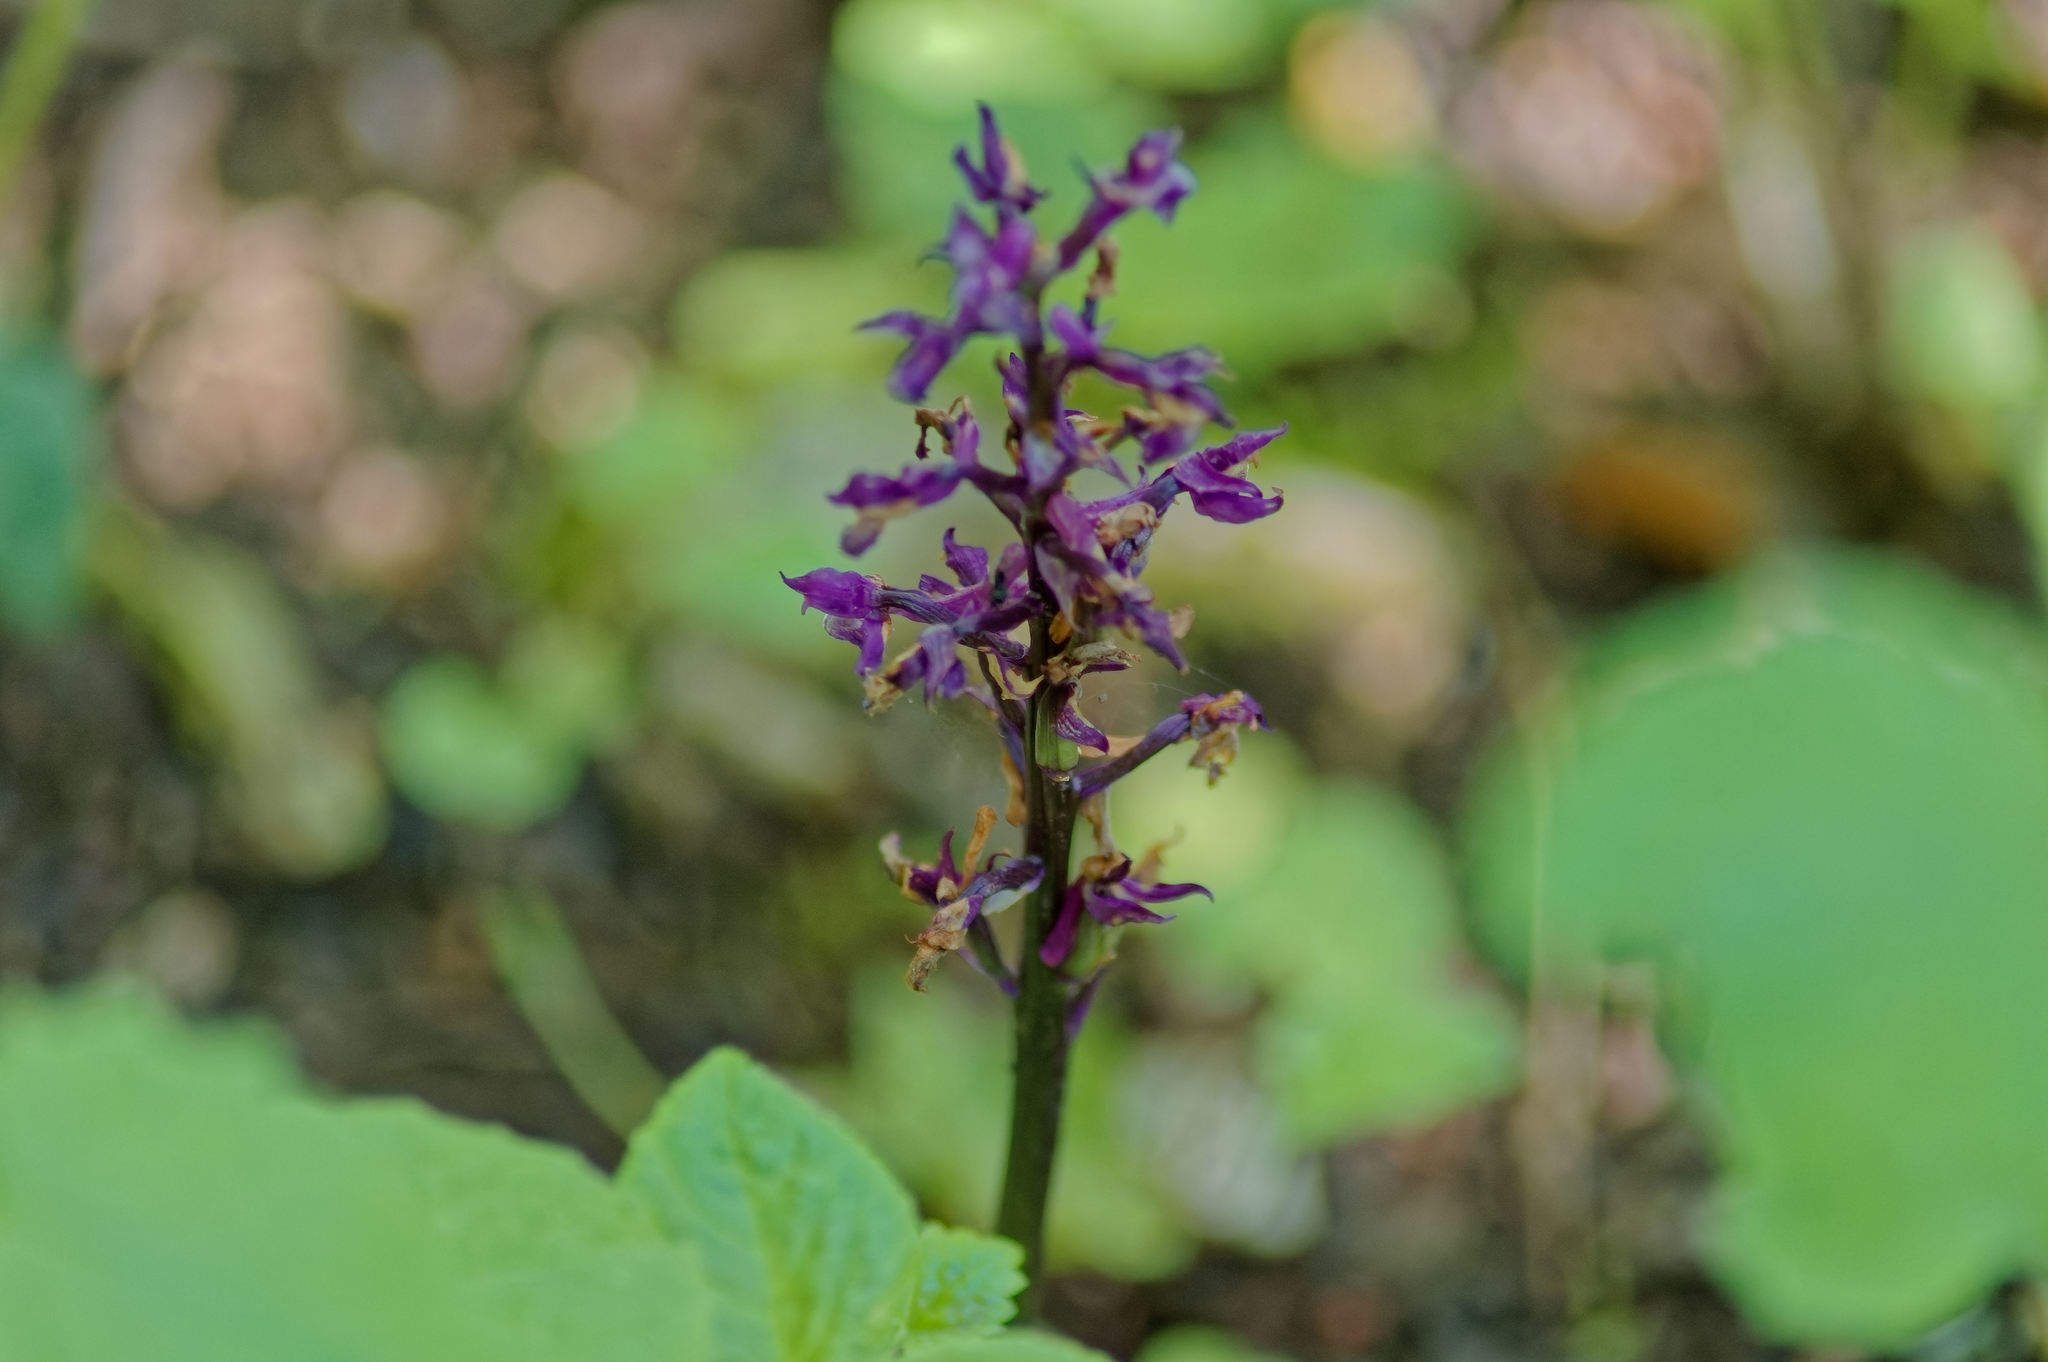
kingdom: Plantae
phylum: Tracheophyta
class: Liliopsida
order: Asparagales
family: Orchidaceae
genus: Orchis
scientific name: Orchis mascula
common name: Early-purple orchid
